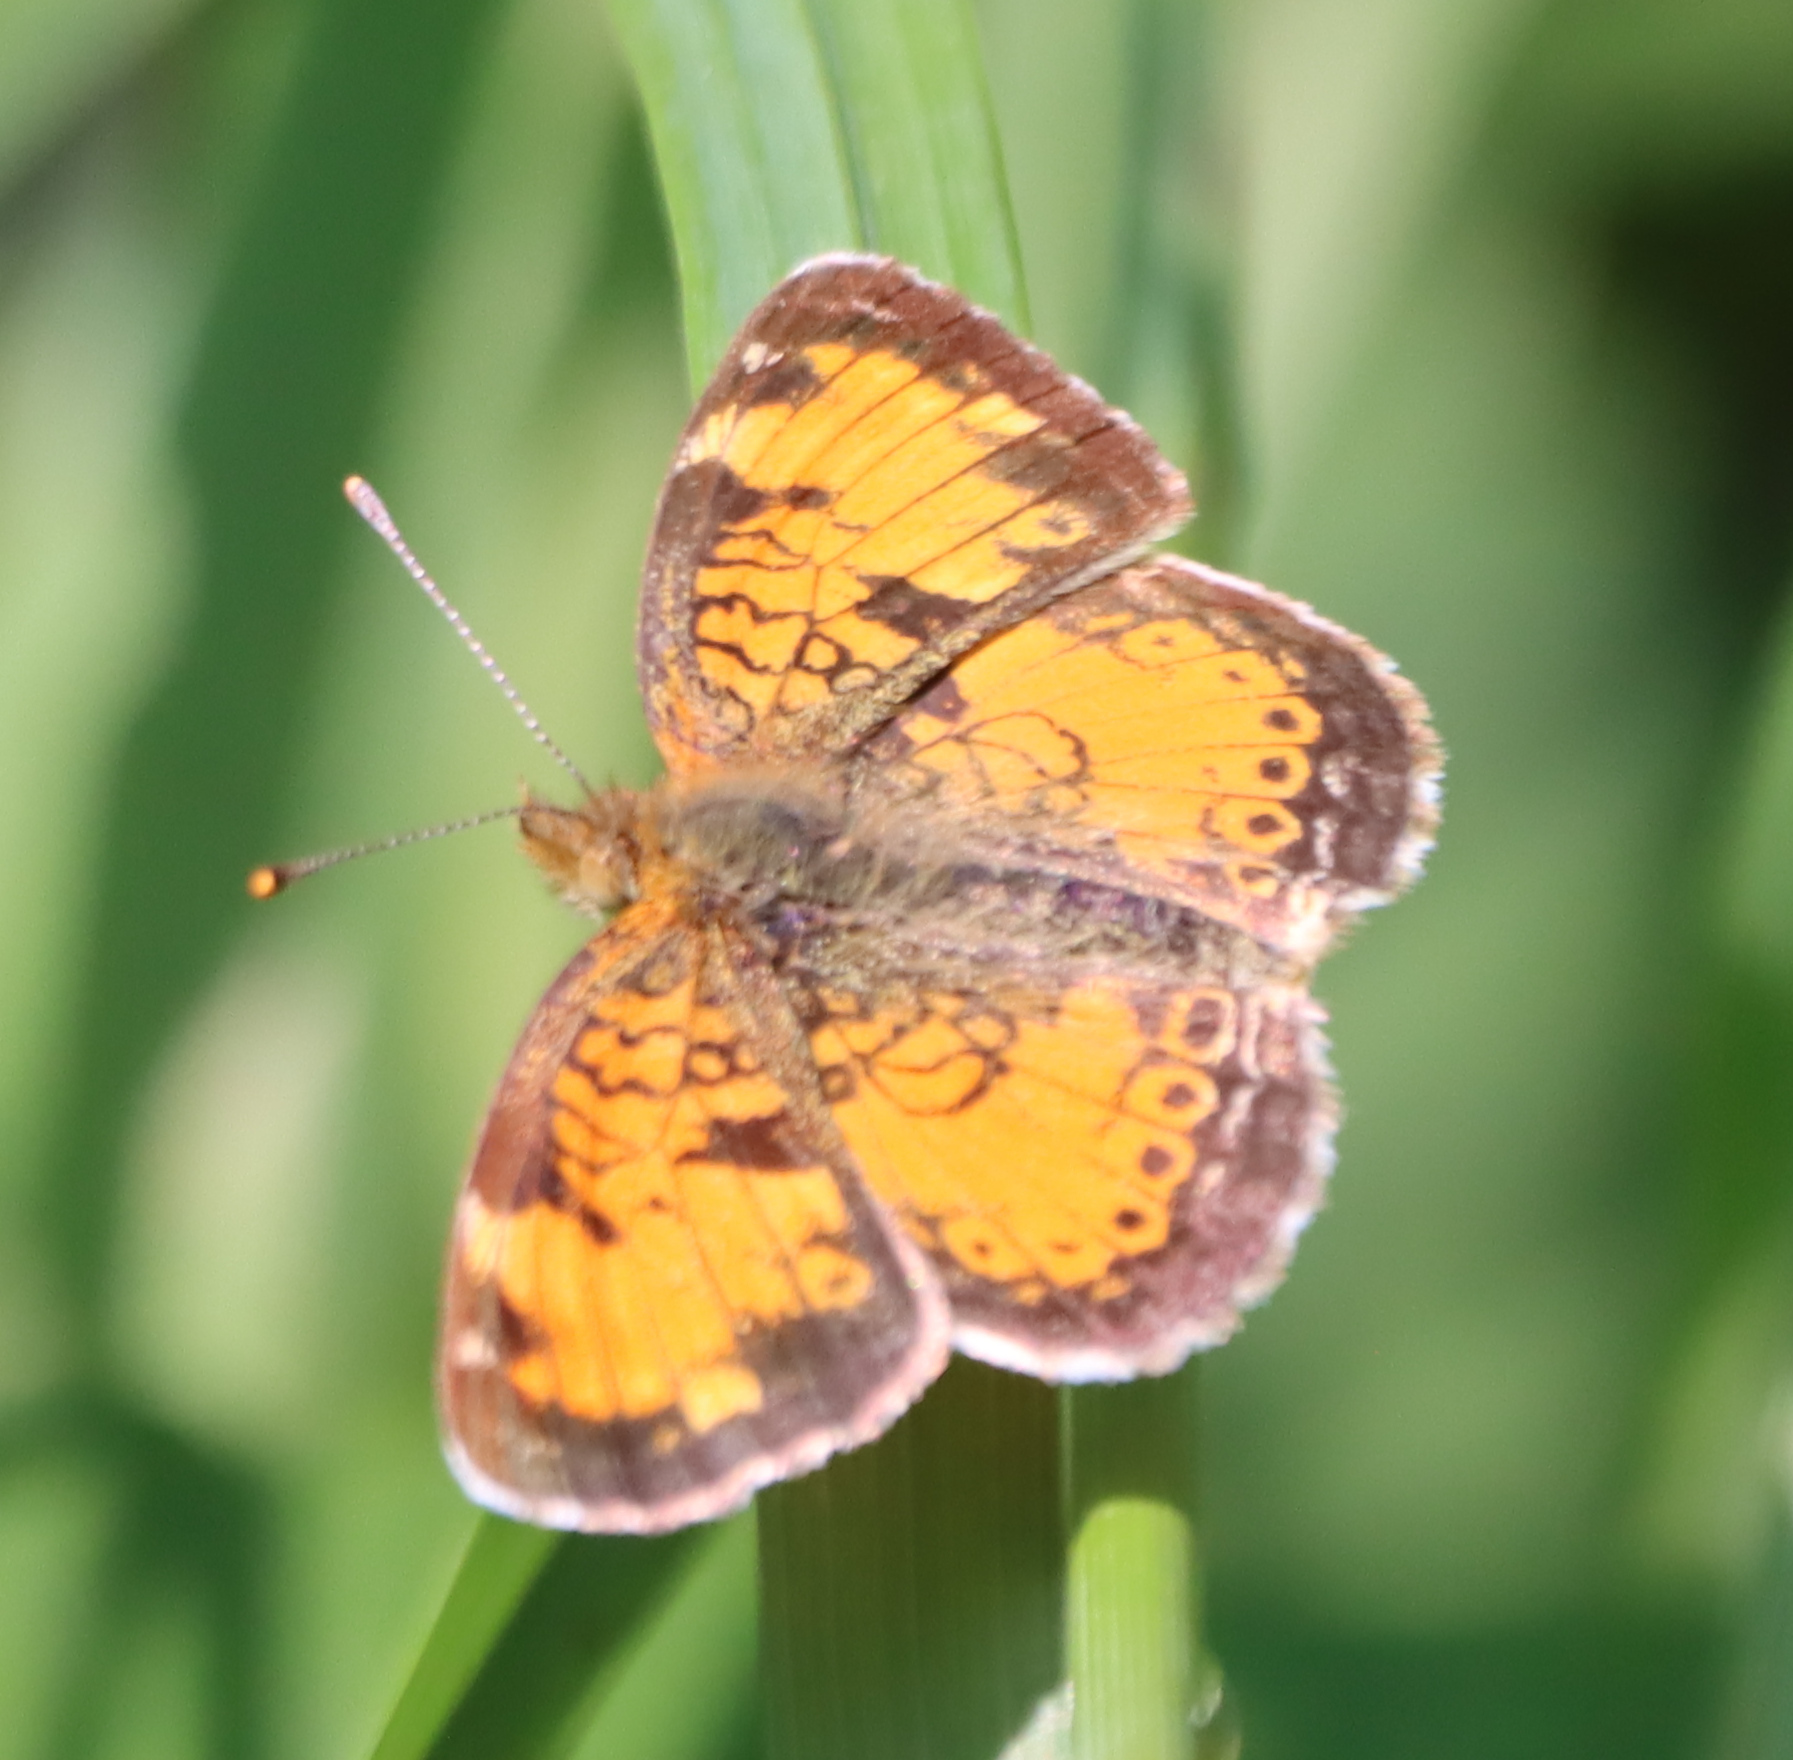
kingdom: Animalia
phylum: Arthropoda
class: Insecta
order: Lepidoptera
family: Nymphalidae
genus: Phyciodes
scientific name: Phyciodes tharos
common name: Pearl crescent
